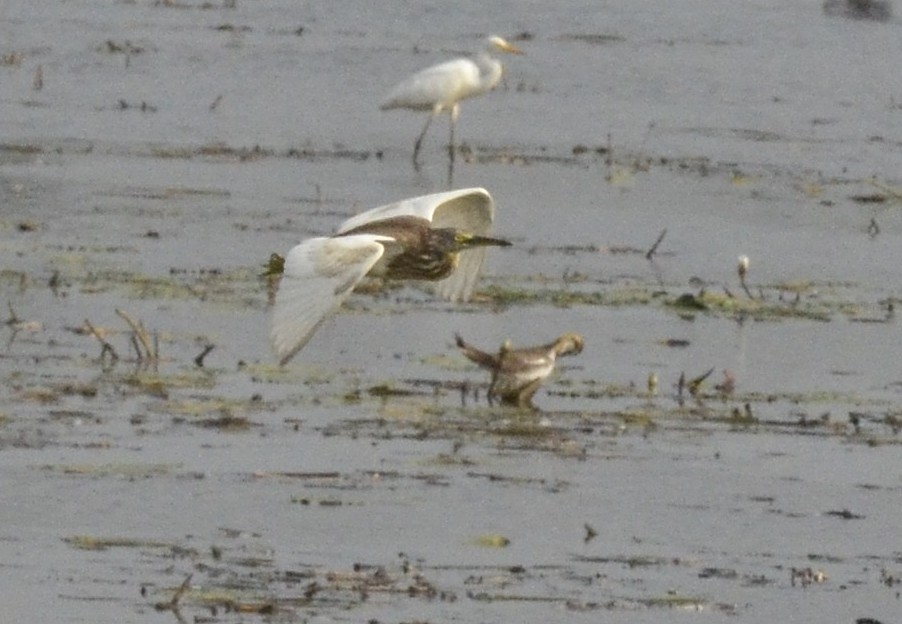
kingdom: Animalia
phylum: Chordata
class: Aves
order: Pelecaniformes
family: Ardeidae
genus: Ardeola
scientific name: Ardeola grayii
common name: Indian pond heron
